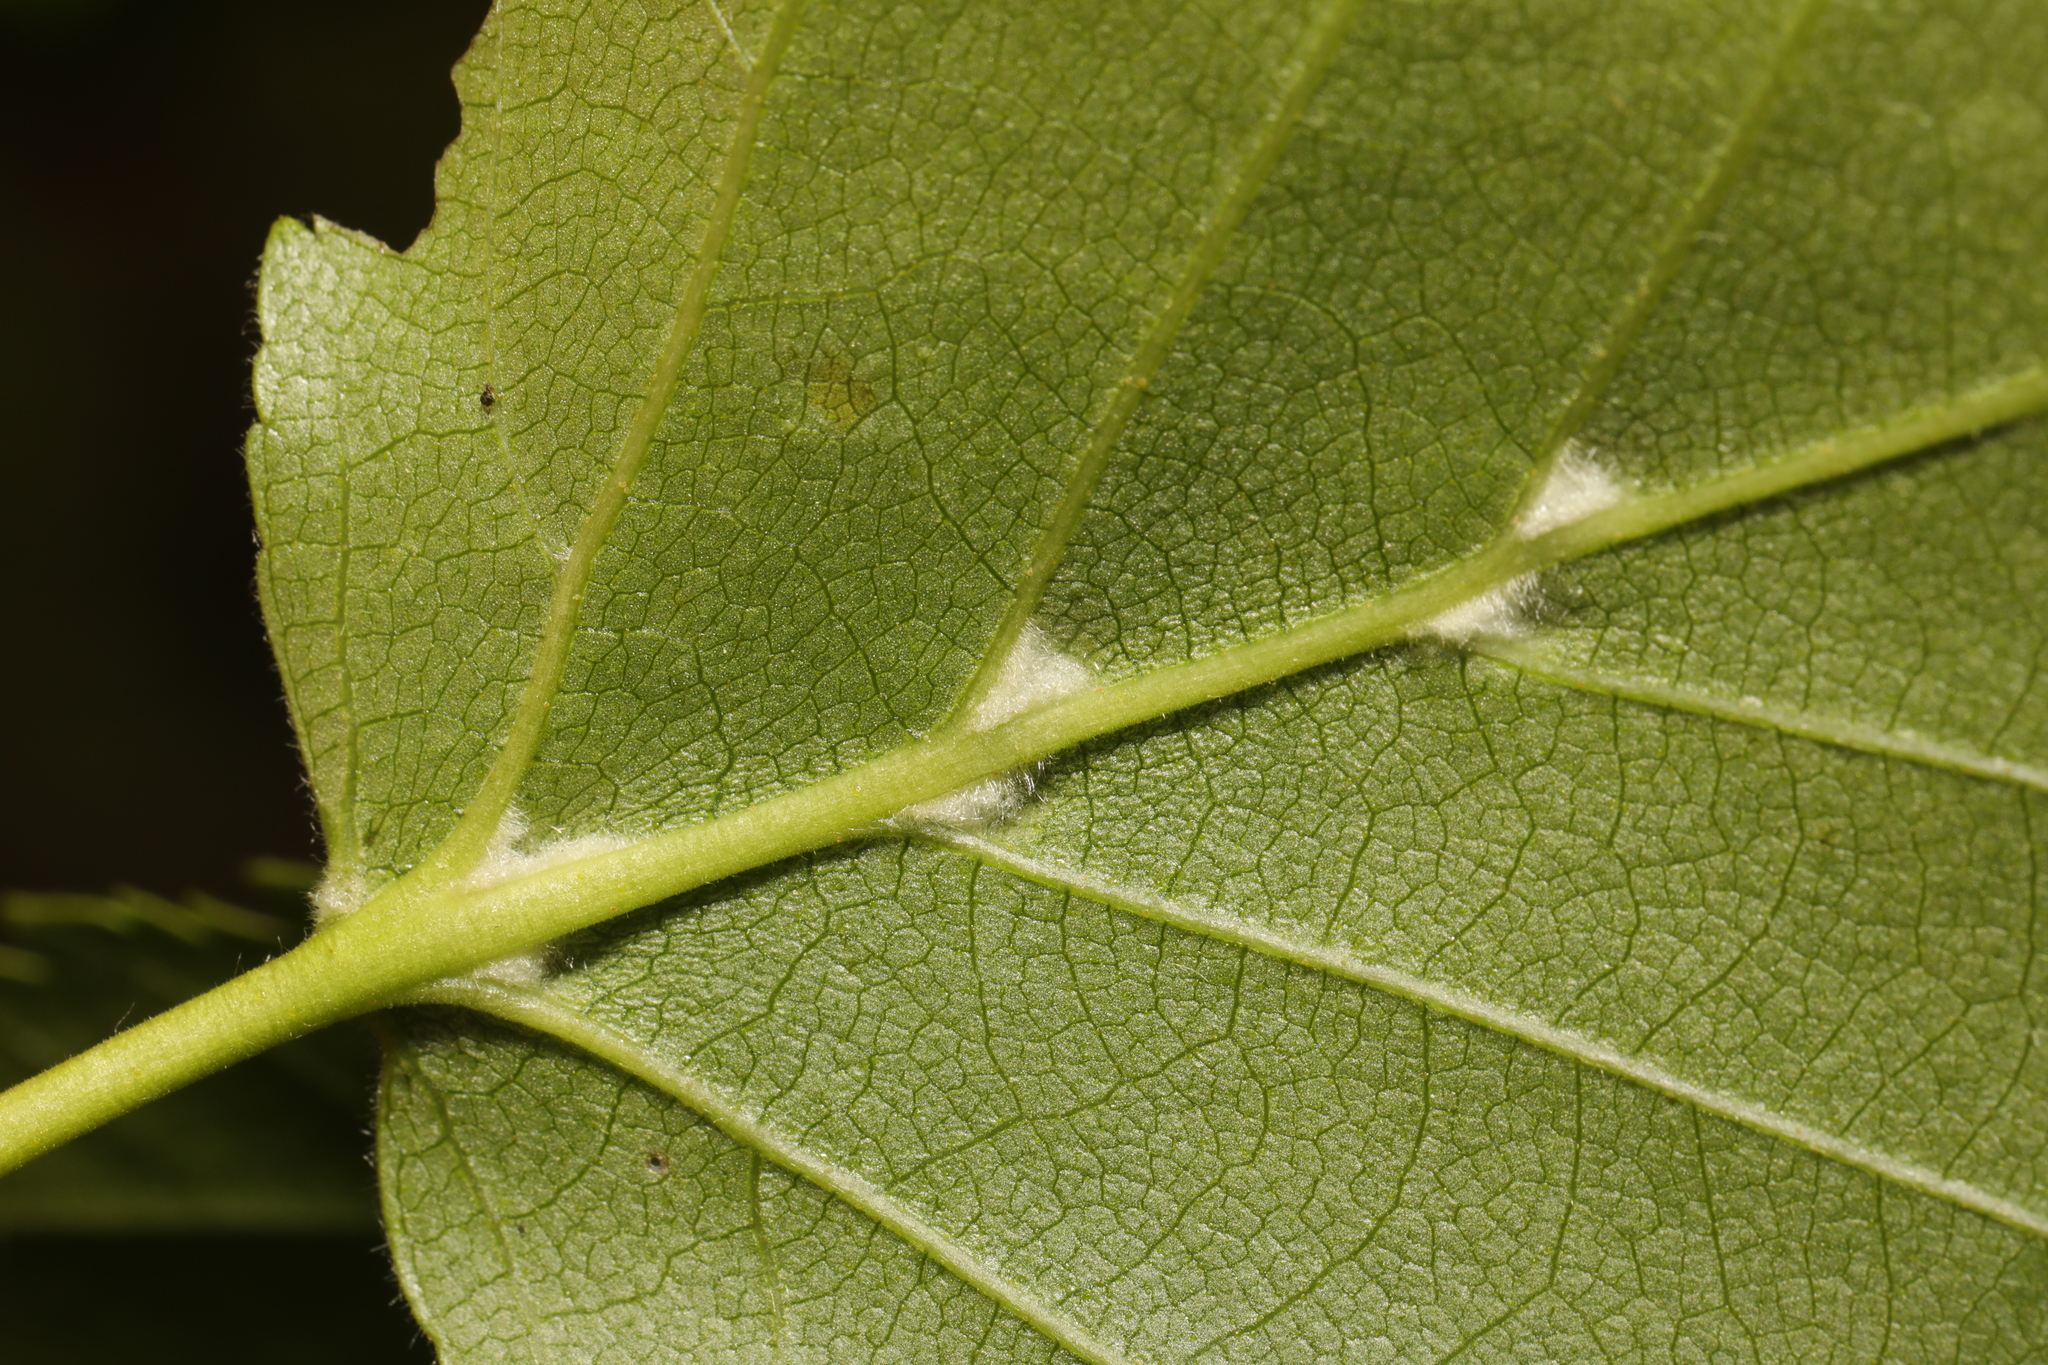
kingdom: Animalia
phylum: Arthropoda
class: Arachnida
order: Trombidiformes
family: Eriophyidae
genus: Aculus
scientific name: Aculus leionotus
